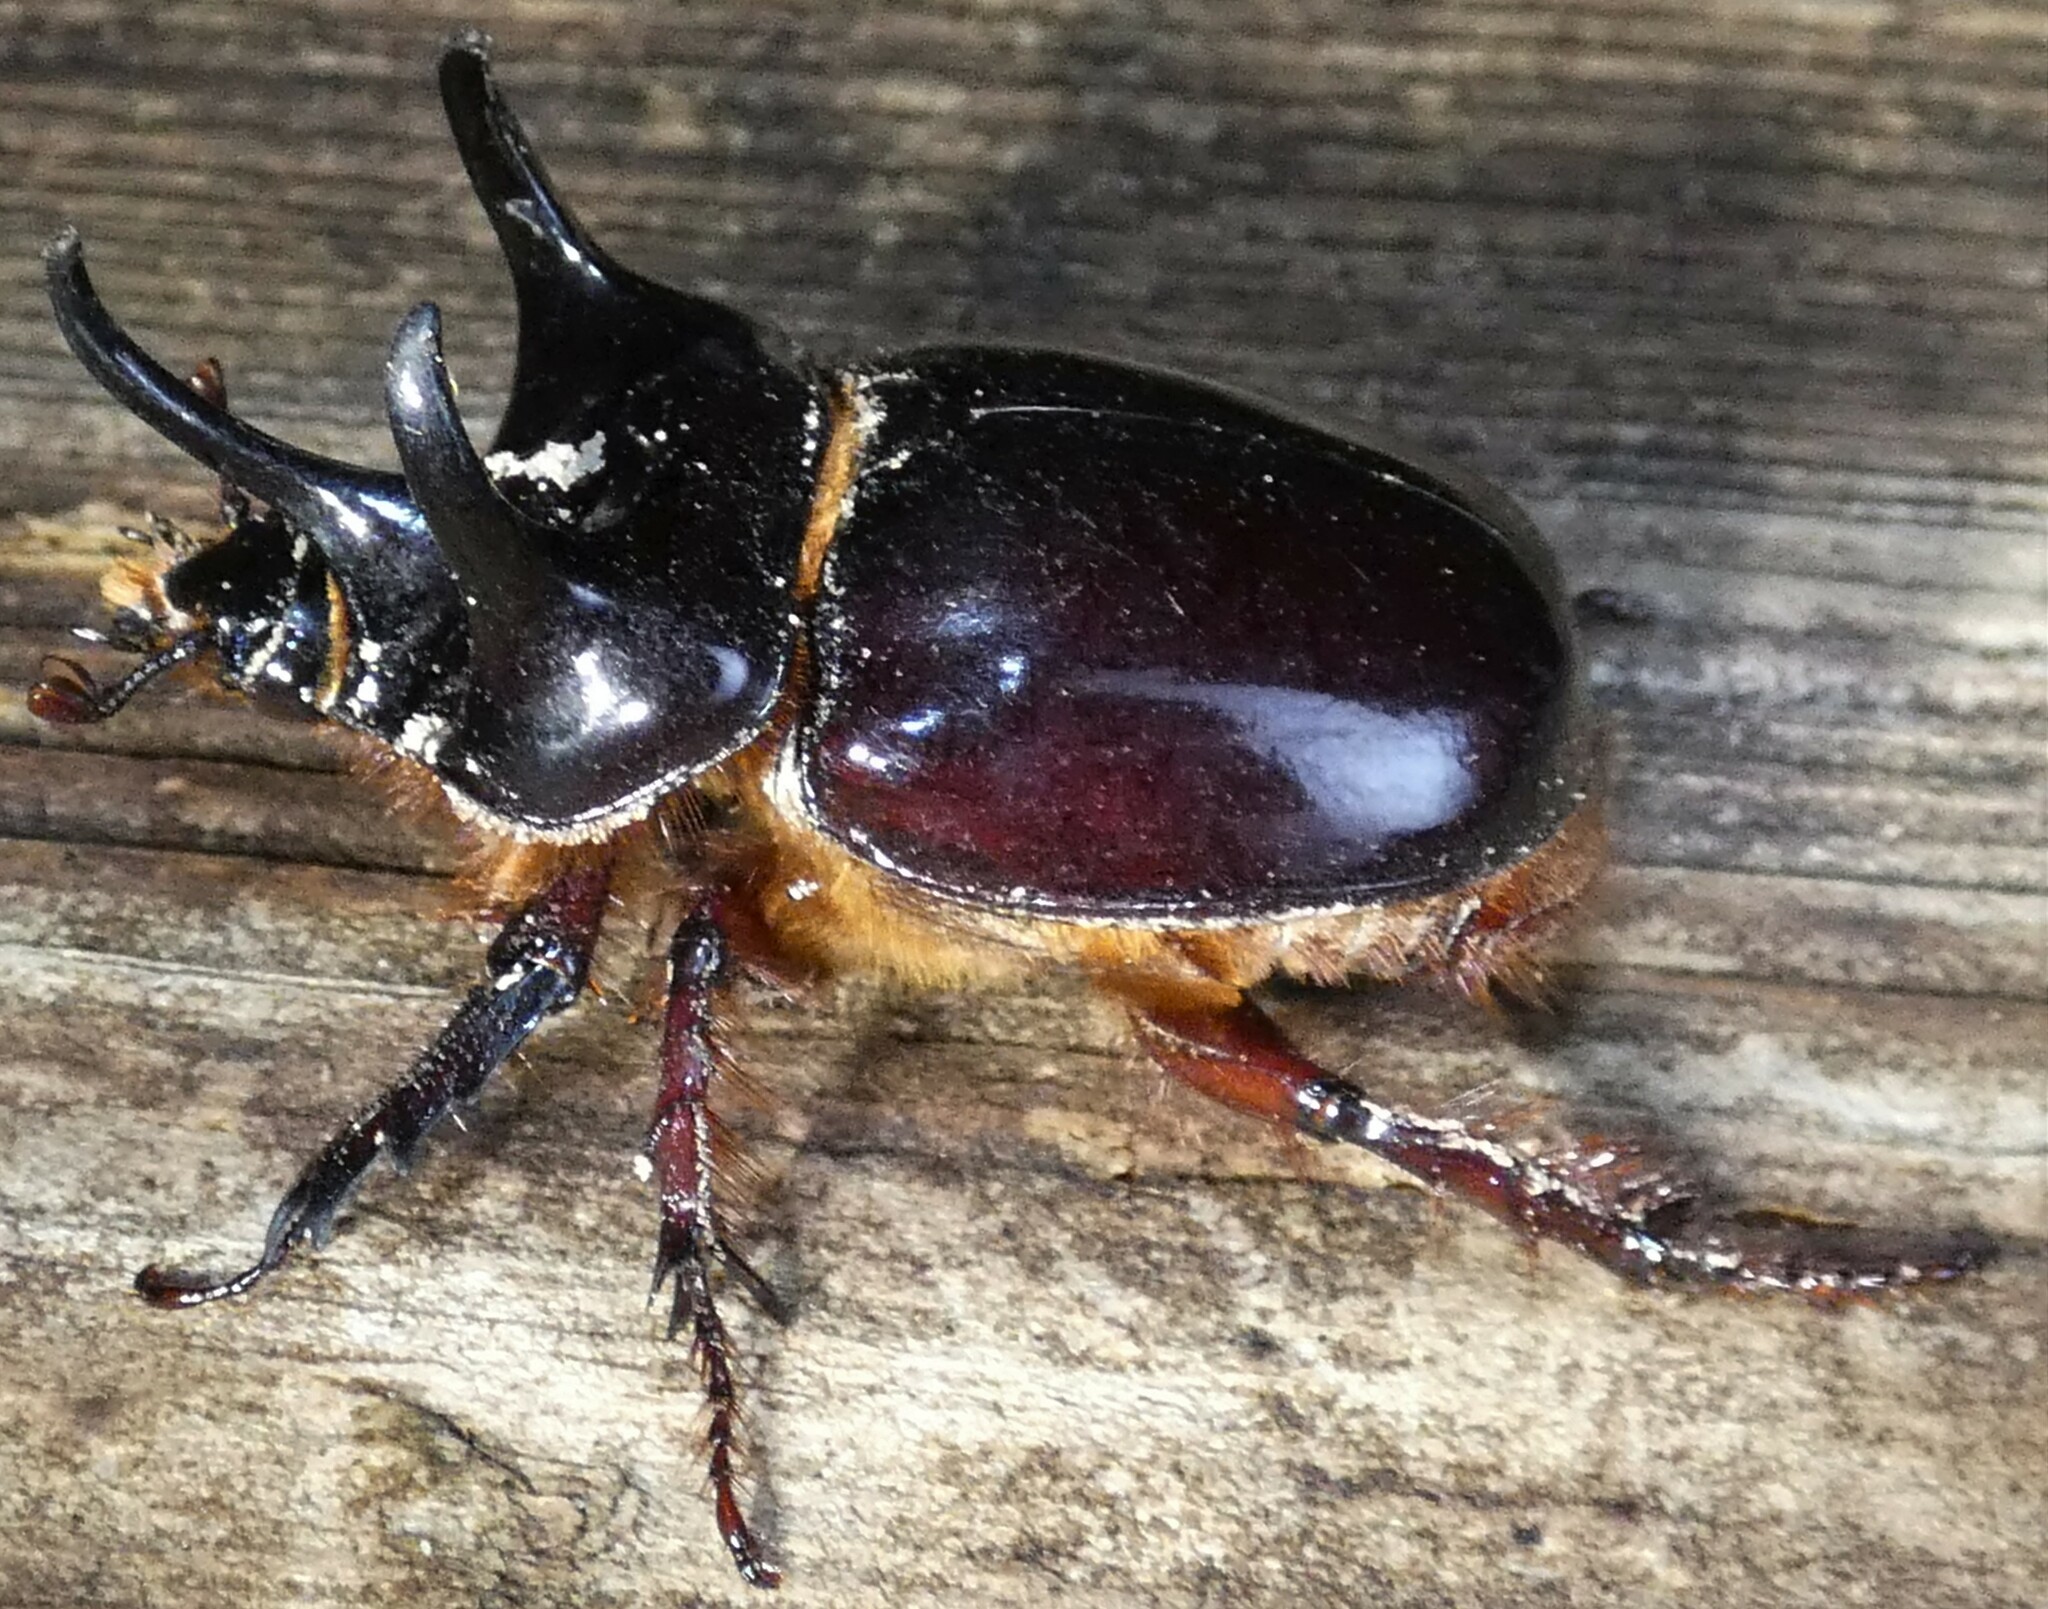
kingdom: Animalia
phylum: Arthropoda
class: Insecta
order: Coleoptera
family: Scarabaeidae
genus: Strategus
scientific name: Strategus antaeus
